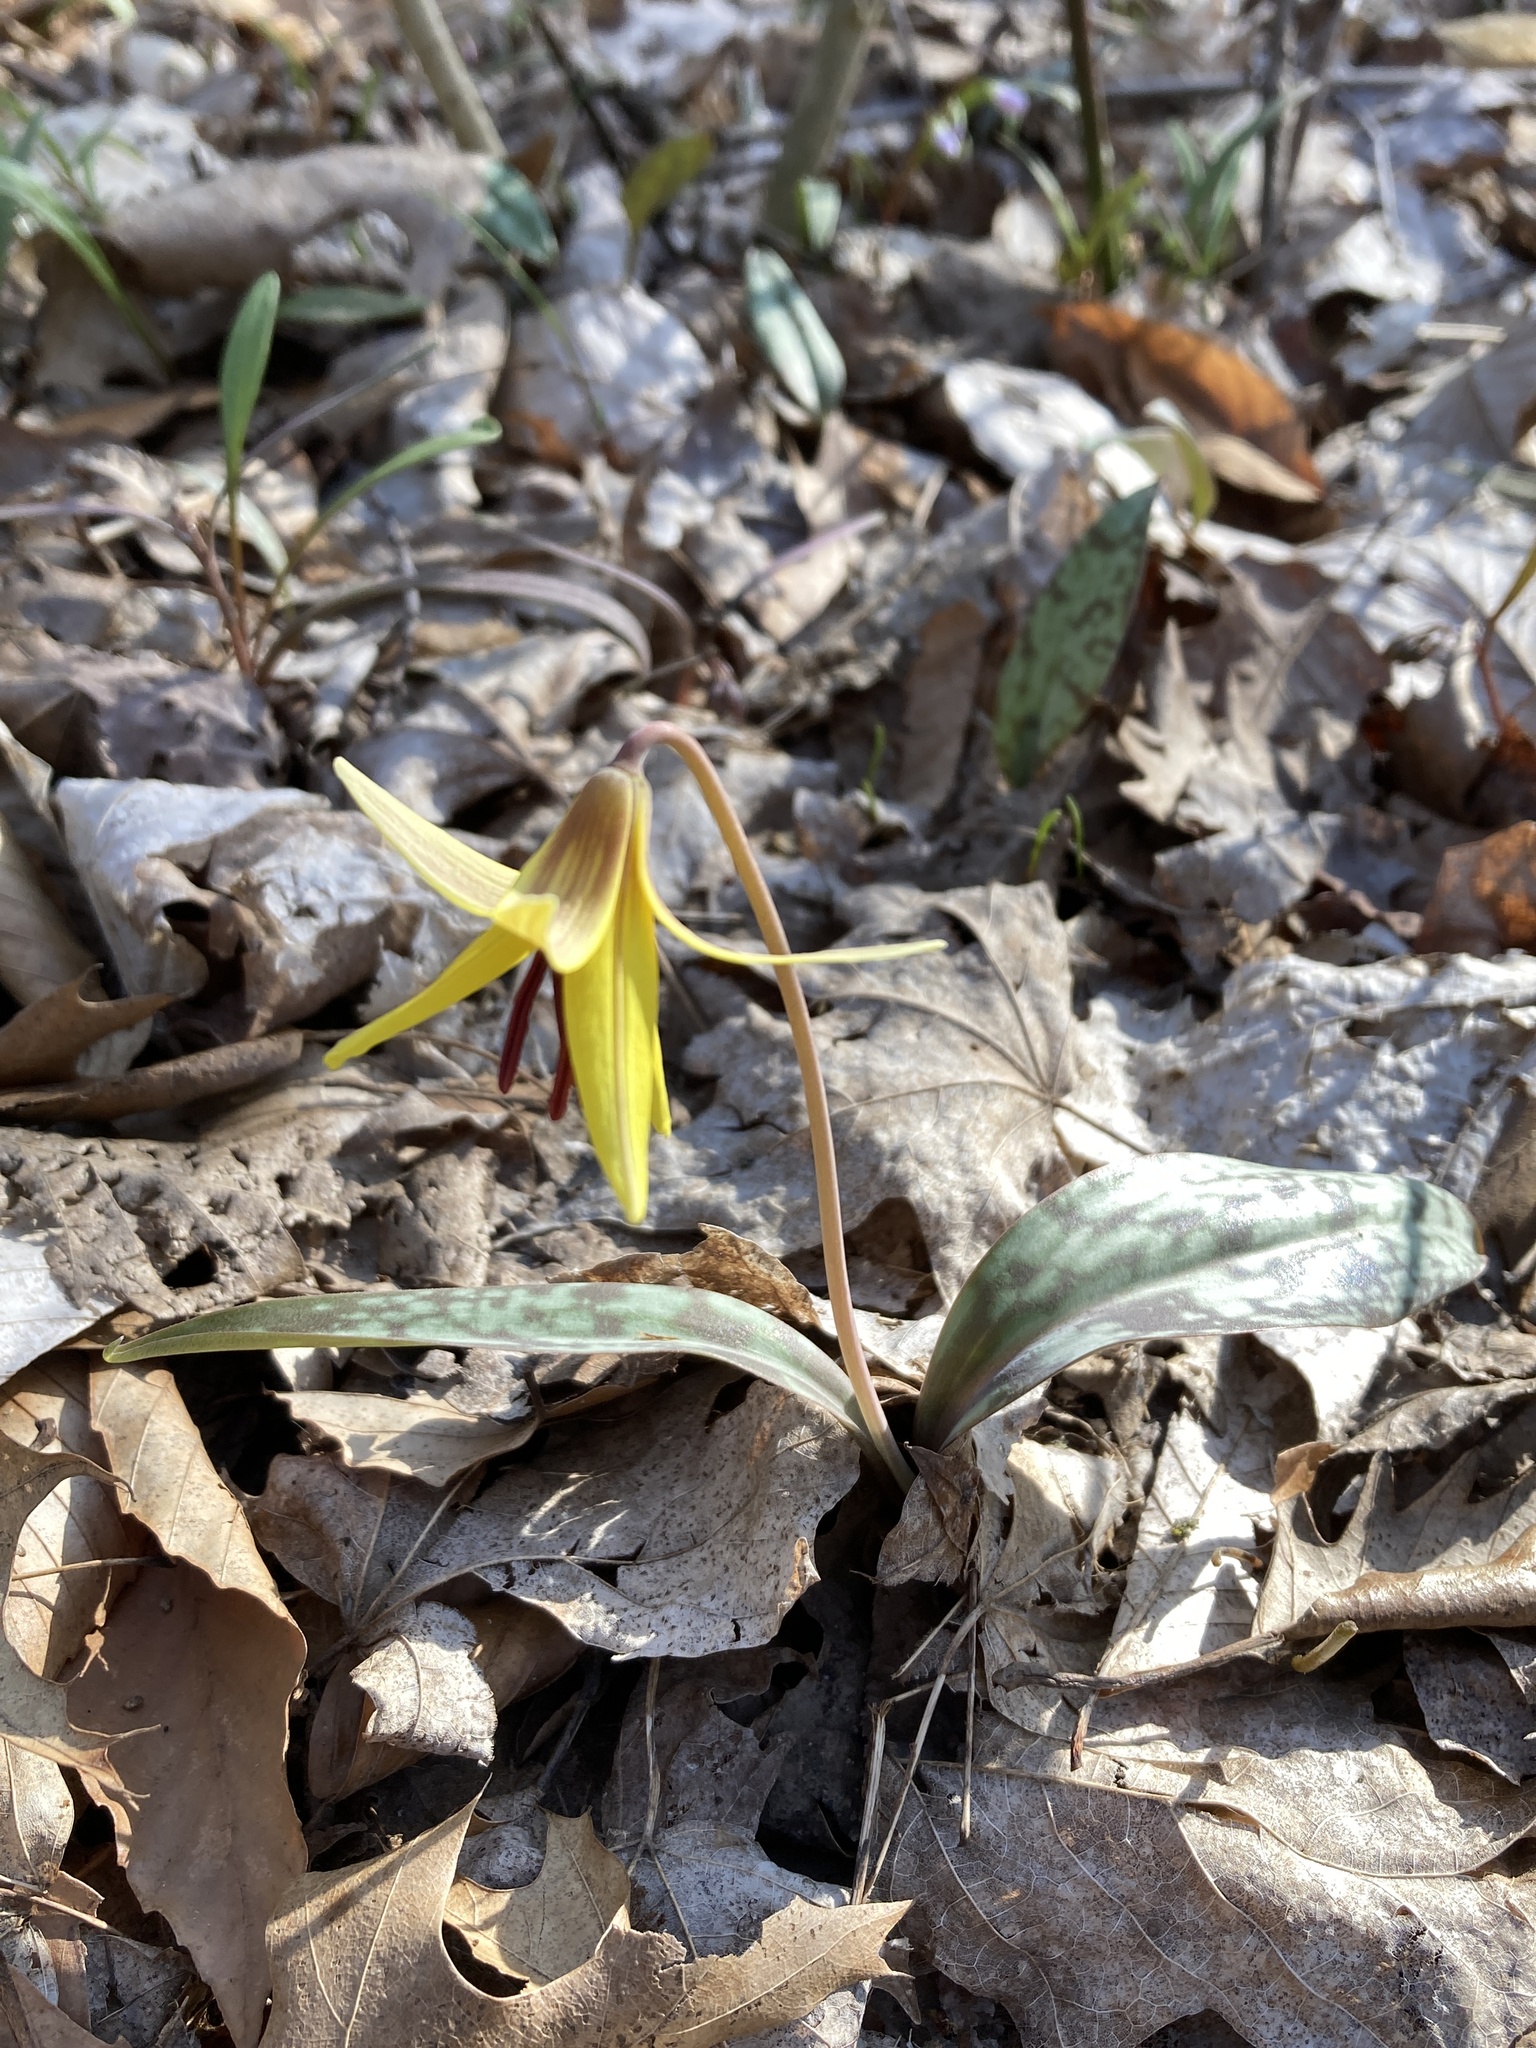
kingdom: Plantae
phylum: Tracheophyta
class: Liliopsida
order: Liliales
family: Liliaceae
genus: Erythronium
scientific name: Erythronium americanum
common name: Yellow adder's-tongue
